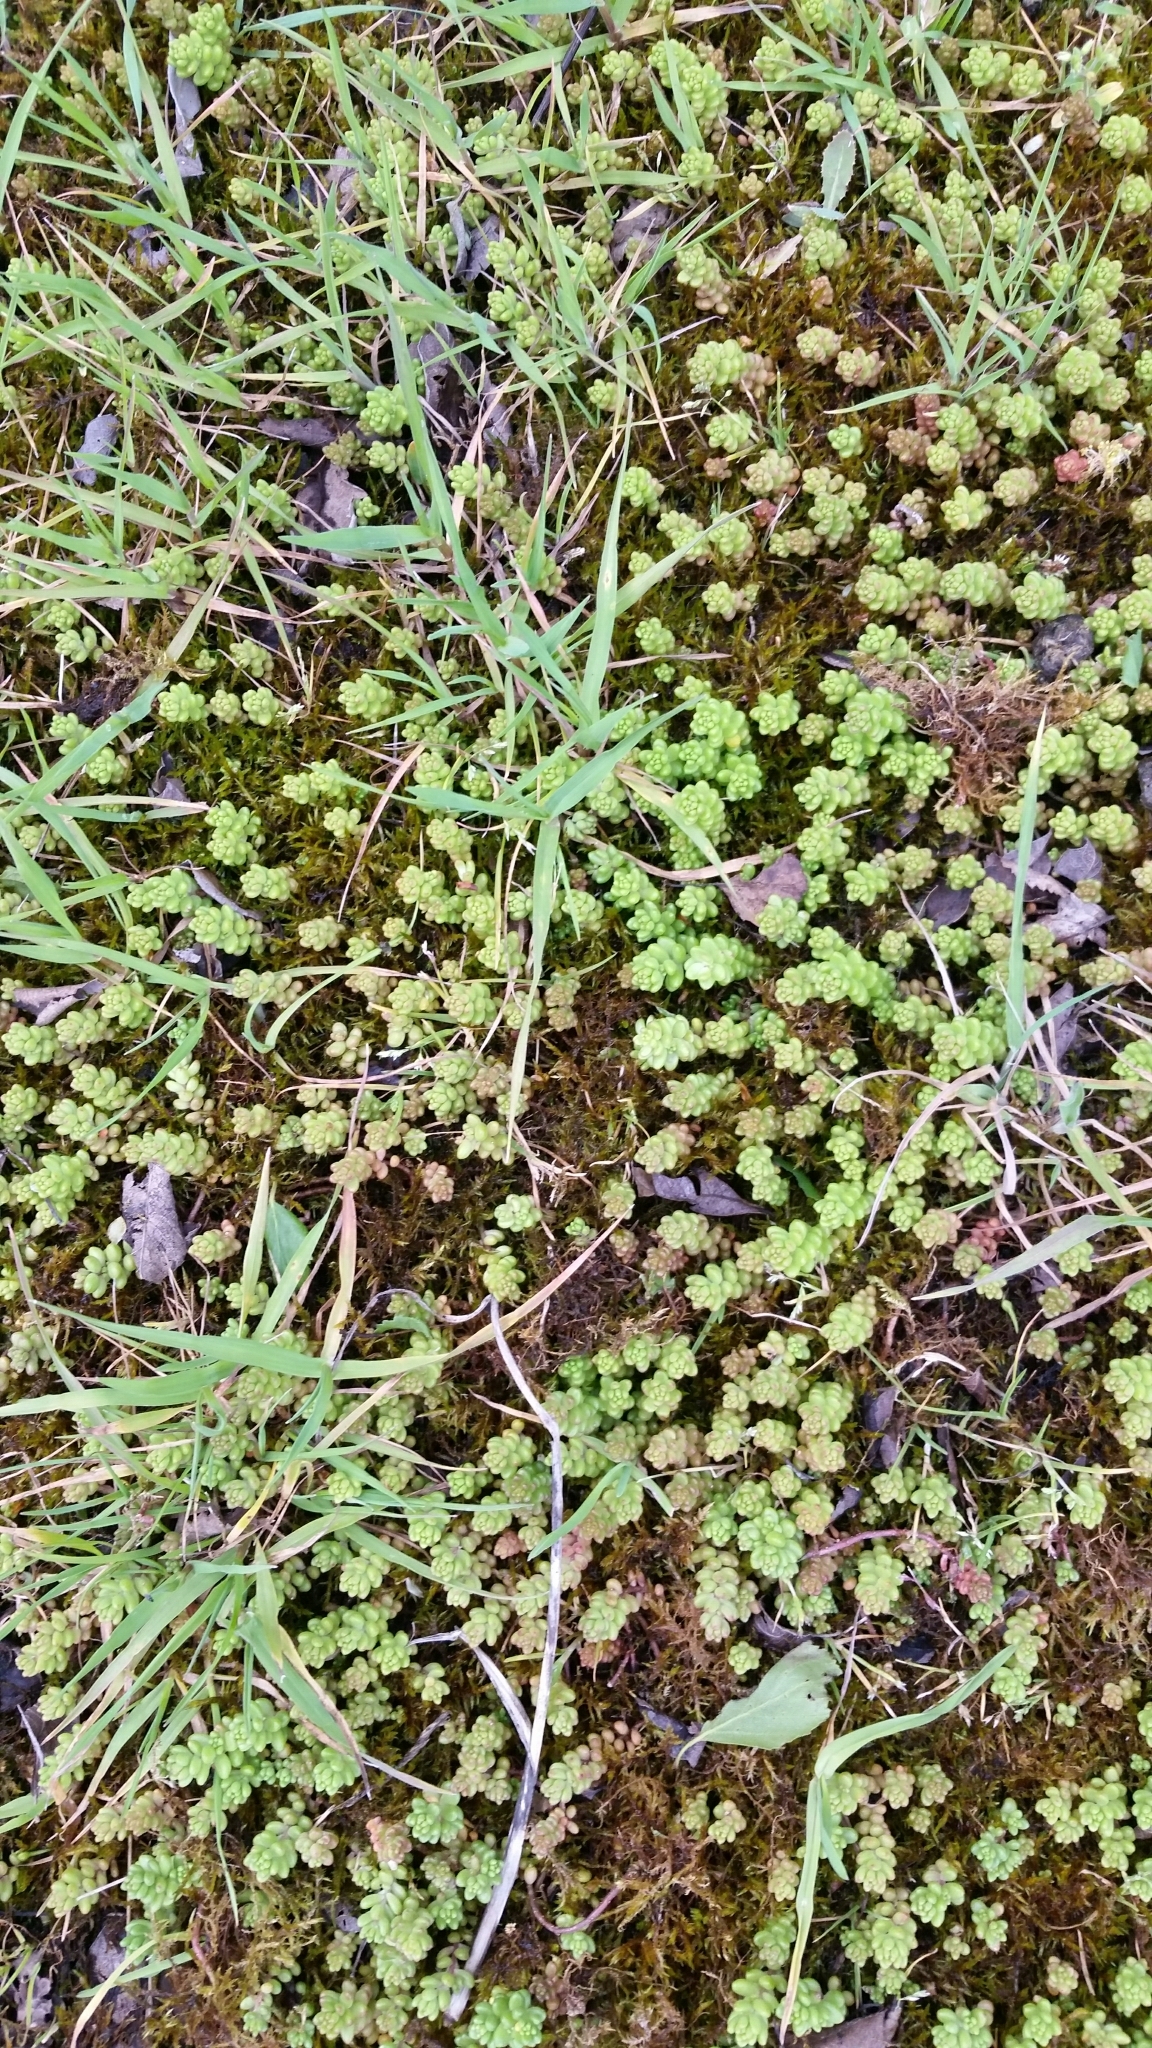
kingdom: Plantae
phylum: Tracheophyta
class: Magnoliopsida
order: Saxifragales
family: Crassulaceae
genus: Sedum
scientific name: Sedum acre
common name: Biting stonecrop
